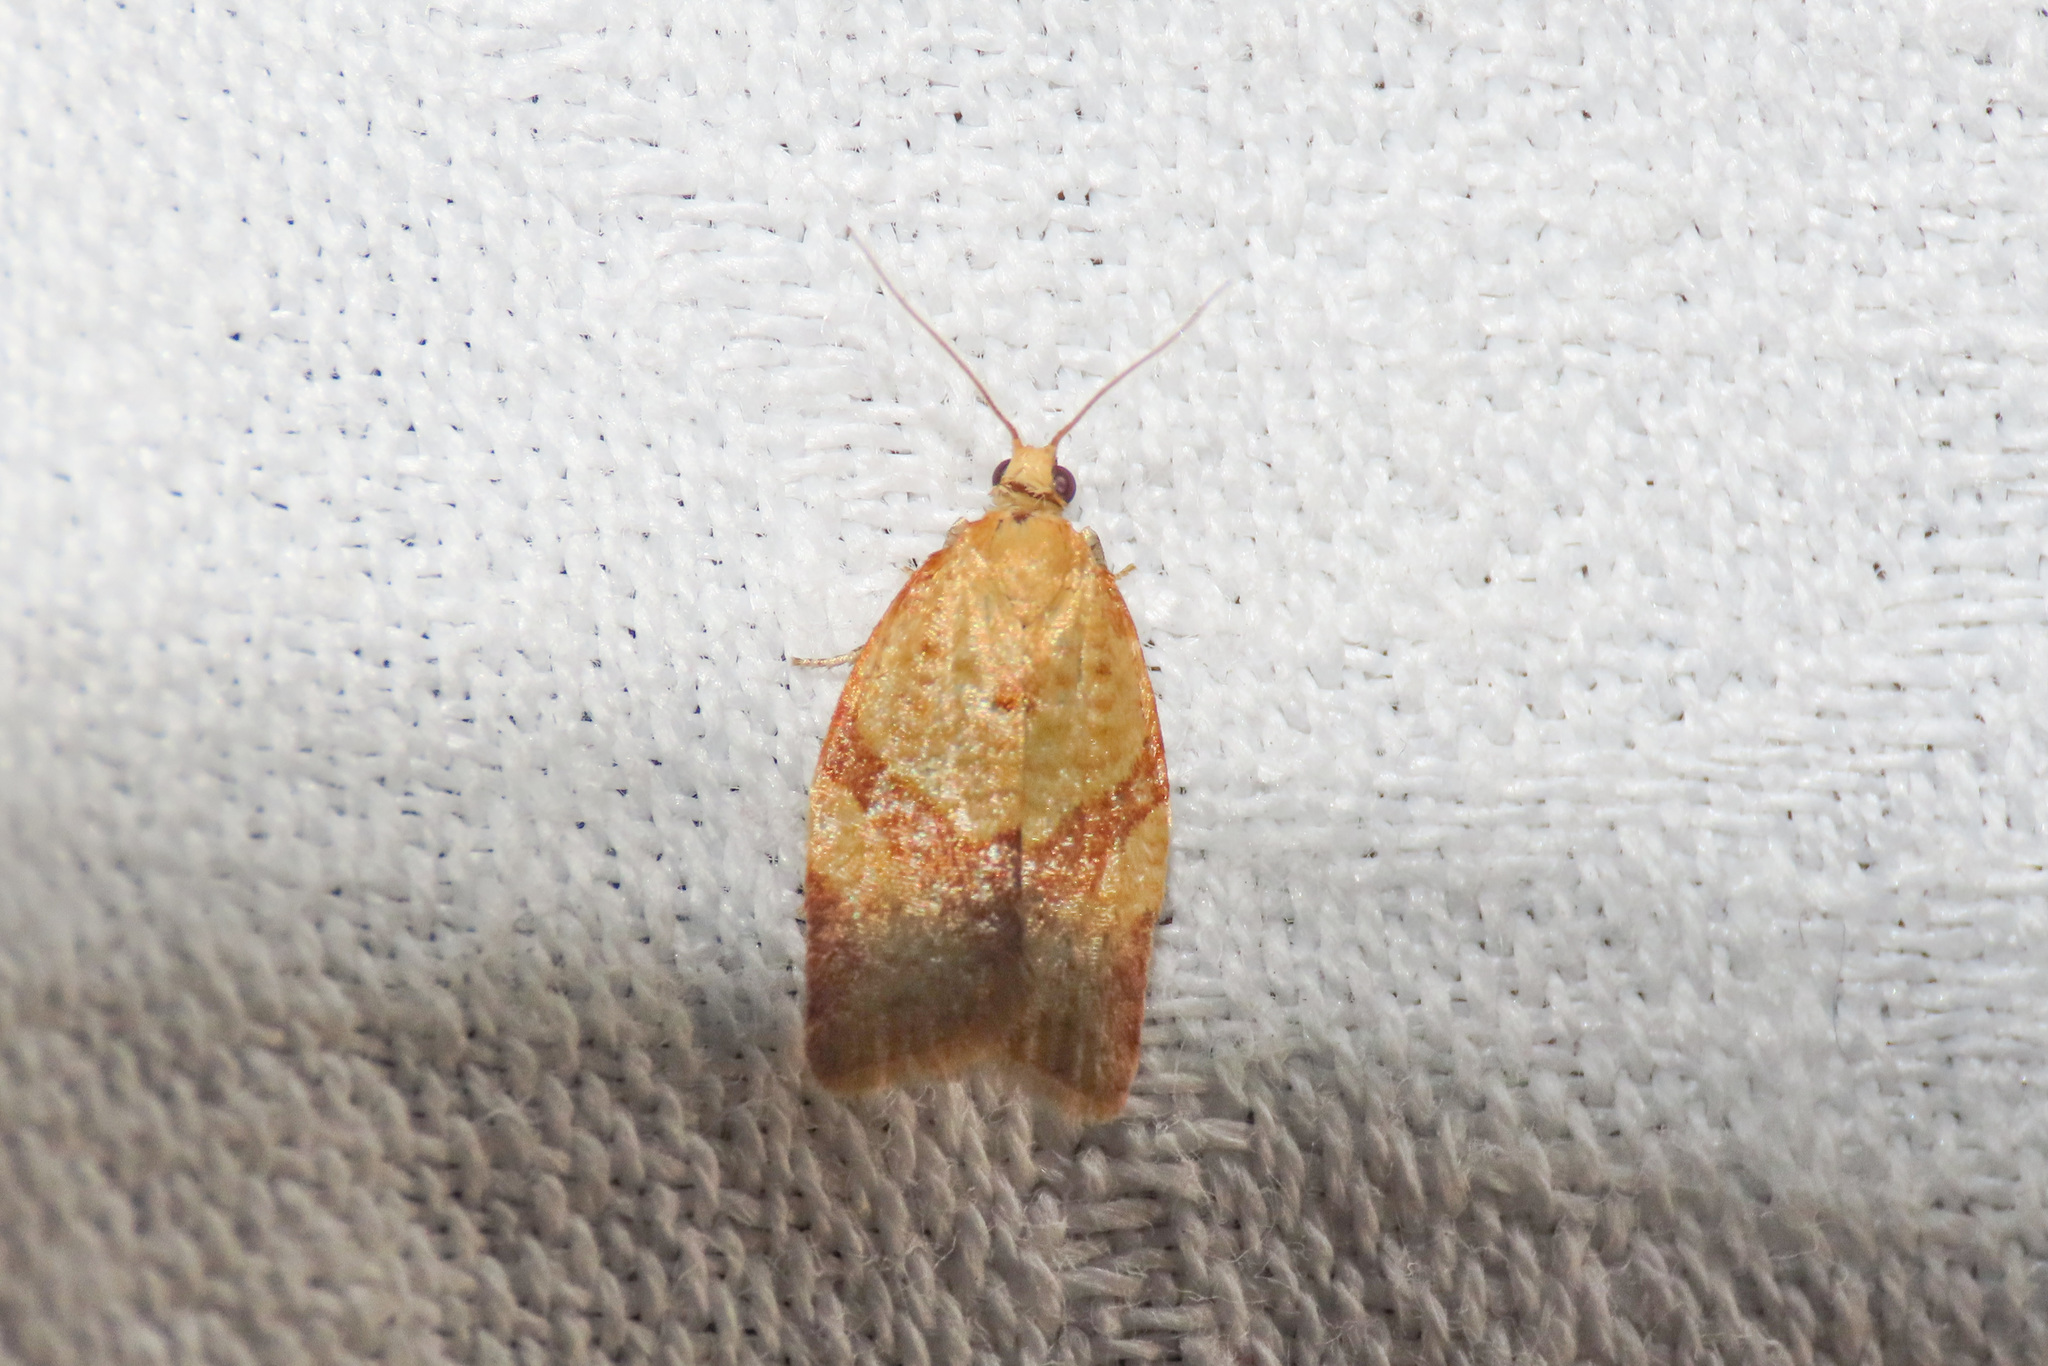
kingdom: Animalia
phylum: Arthropoda
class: Insecta
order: Lepidoptera
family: Tortricidae
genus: Clepsis
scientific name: Clepsis consimilana
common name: Privet tortrix
